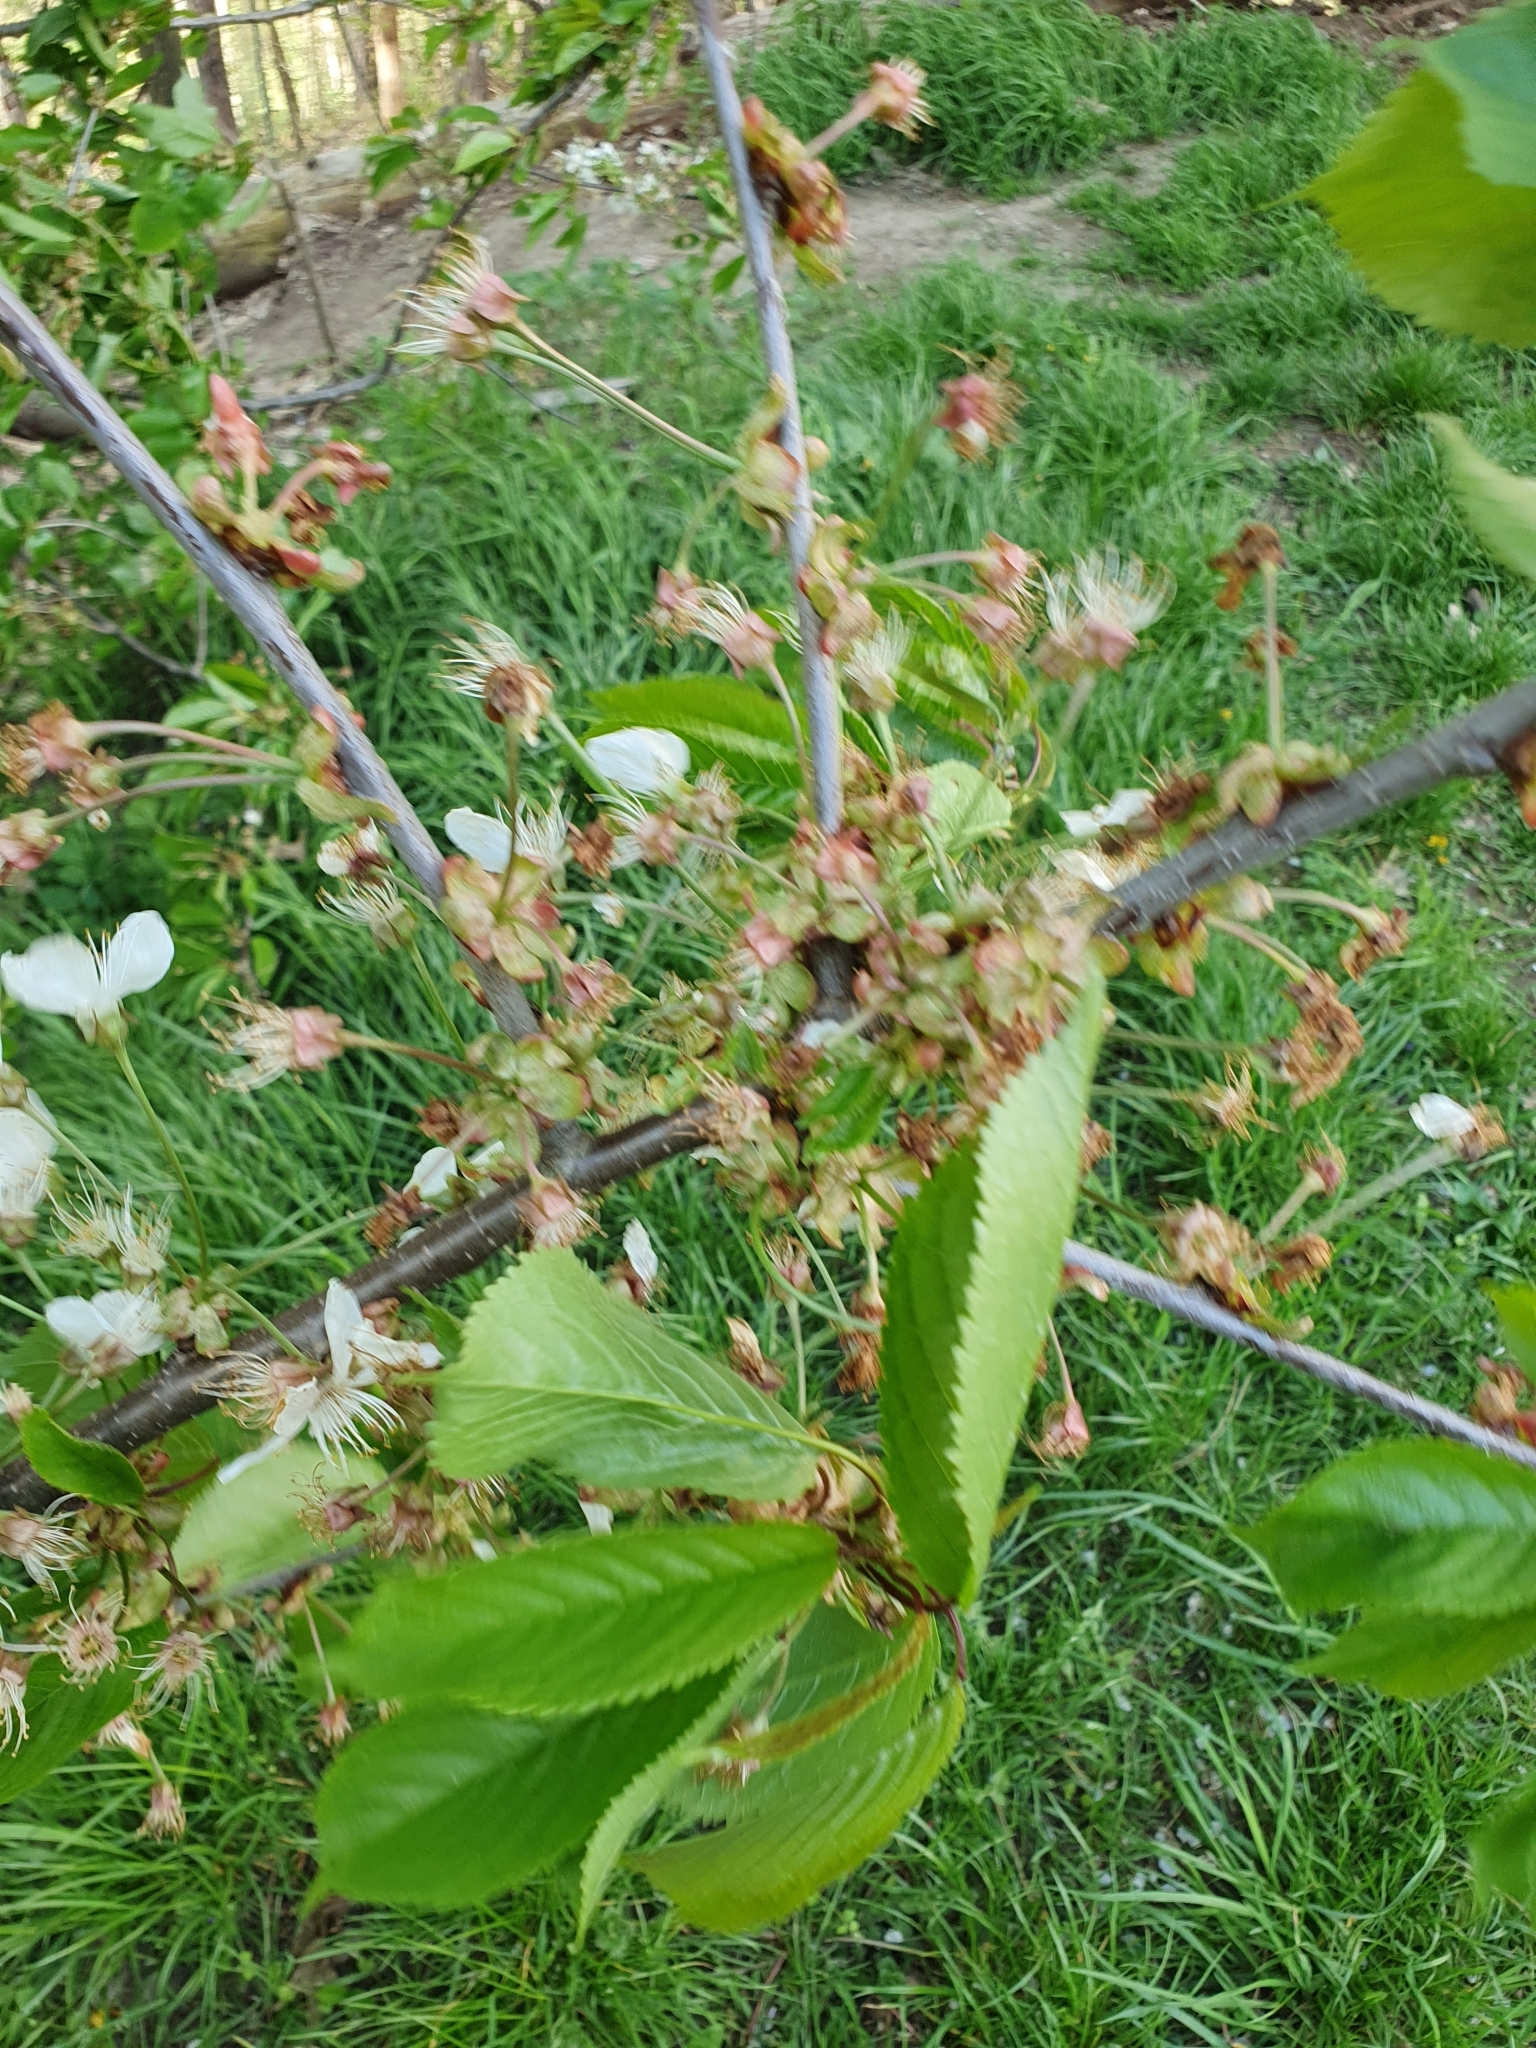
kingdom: Plantae
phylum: Tracheophyta
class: Magnoliopsida
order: Rosales
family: Rosaceae
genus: Prunus
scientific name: Prunus avium
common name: Sweet cherry
